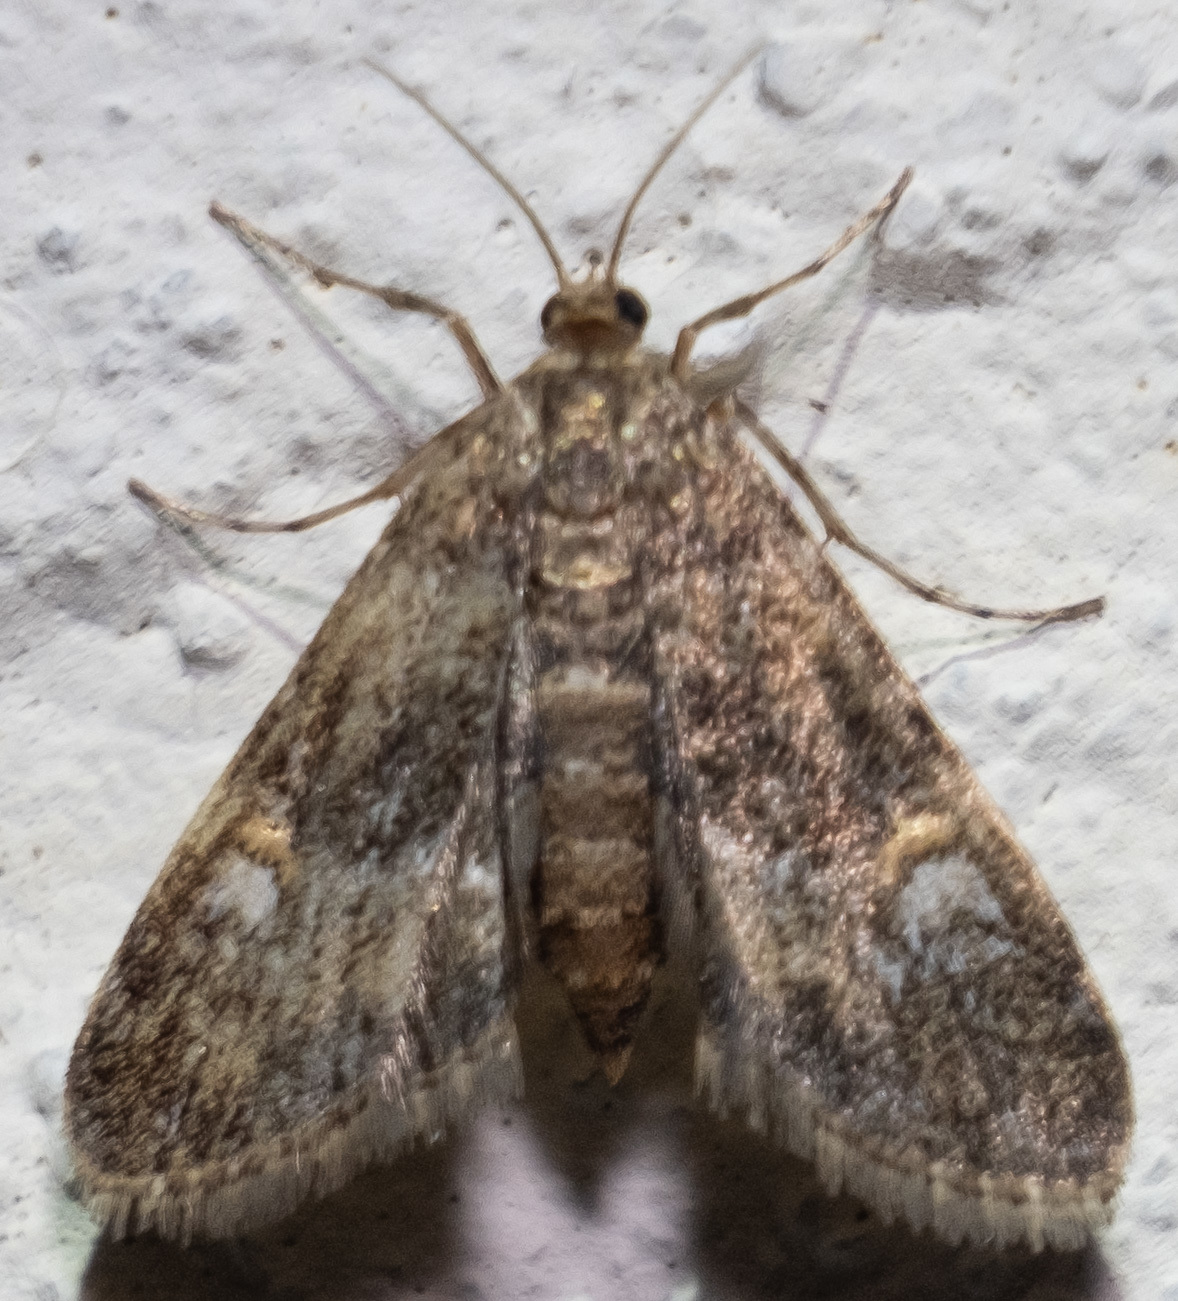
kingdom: Animalia
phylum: Arthropoda
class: Insecta
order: Lepidoptera
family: Crambidae
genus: Elophila
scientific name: Elophila obliteralis
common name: Waterlily leafcutter moth
